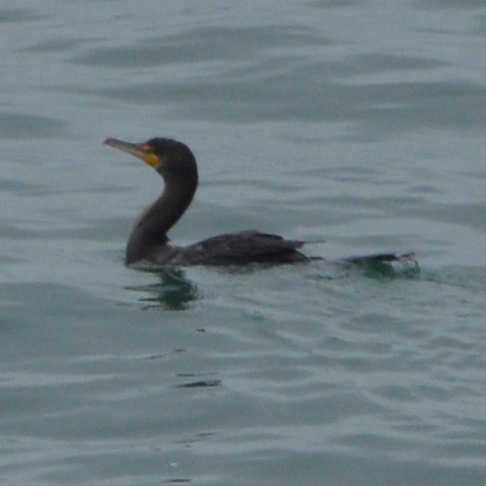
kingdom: Animalia
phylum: Chordata
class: Aves
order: Suliformes
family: Phalacrocoracidae
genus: Phalacrocorax
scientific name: Phalacrocorax auritus
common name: Double-crested cormorant
